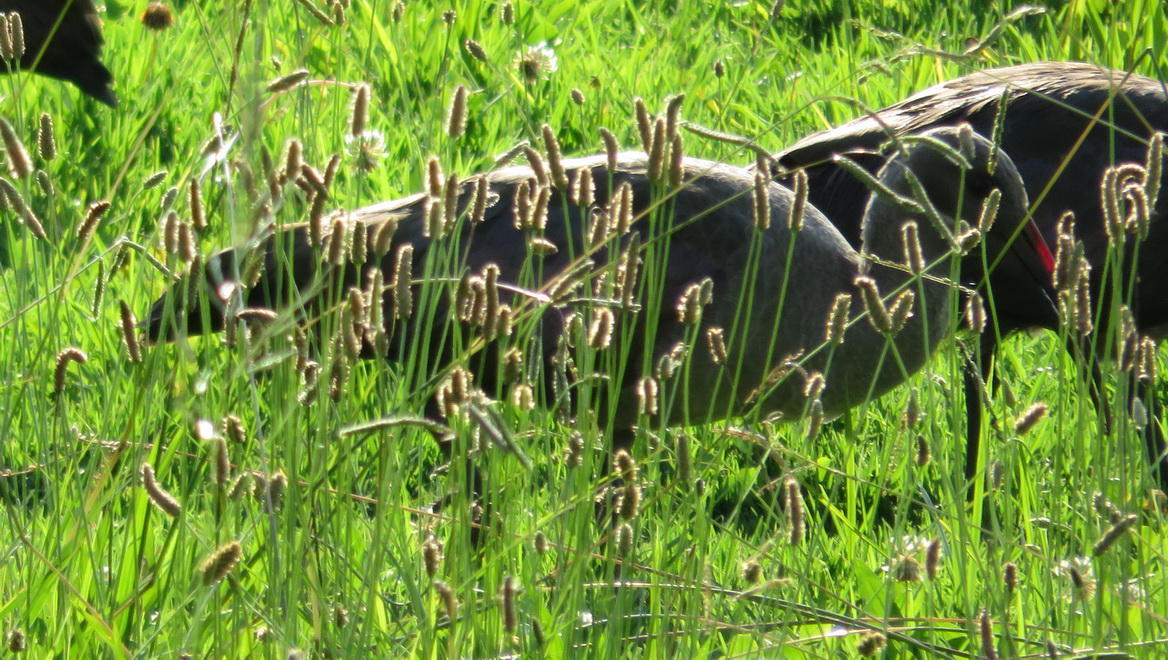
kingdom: Animalia
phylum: Chordata
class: Aves
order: Pelecaniformes
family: Threskiornithidae
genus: Bostrychia
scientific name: Bostrychia hagedash
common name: Hadada ibis
